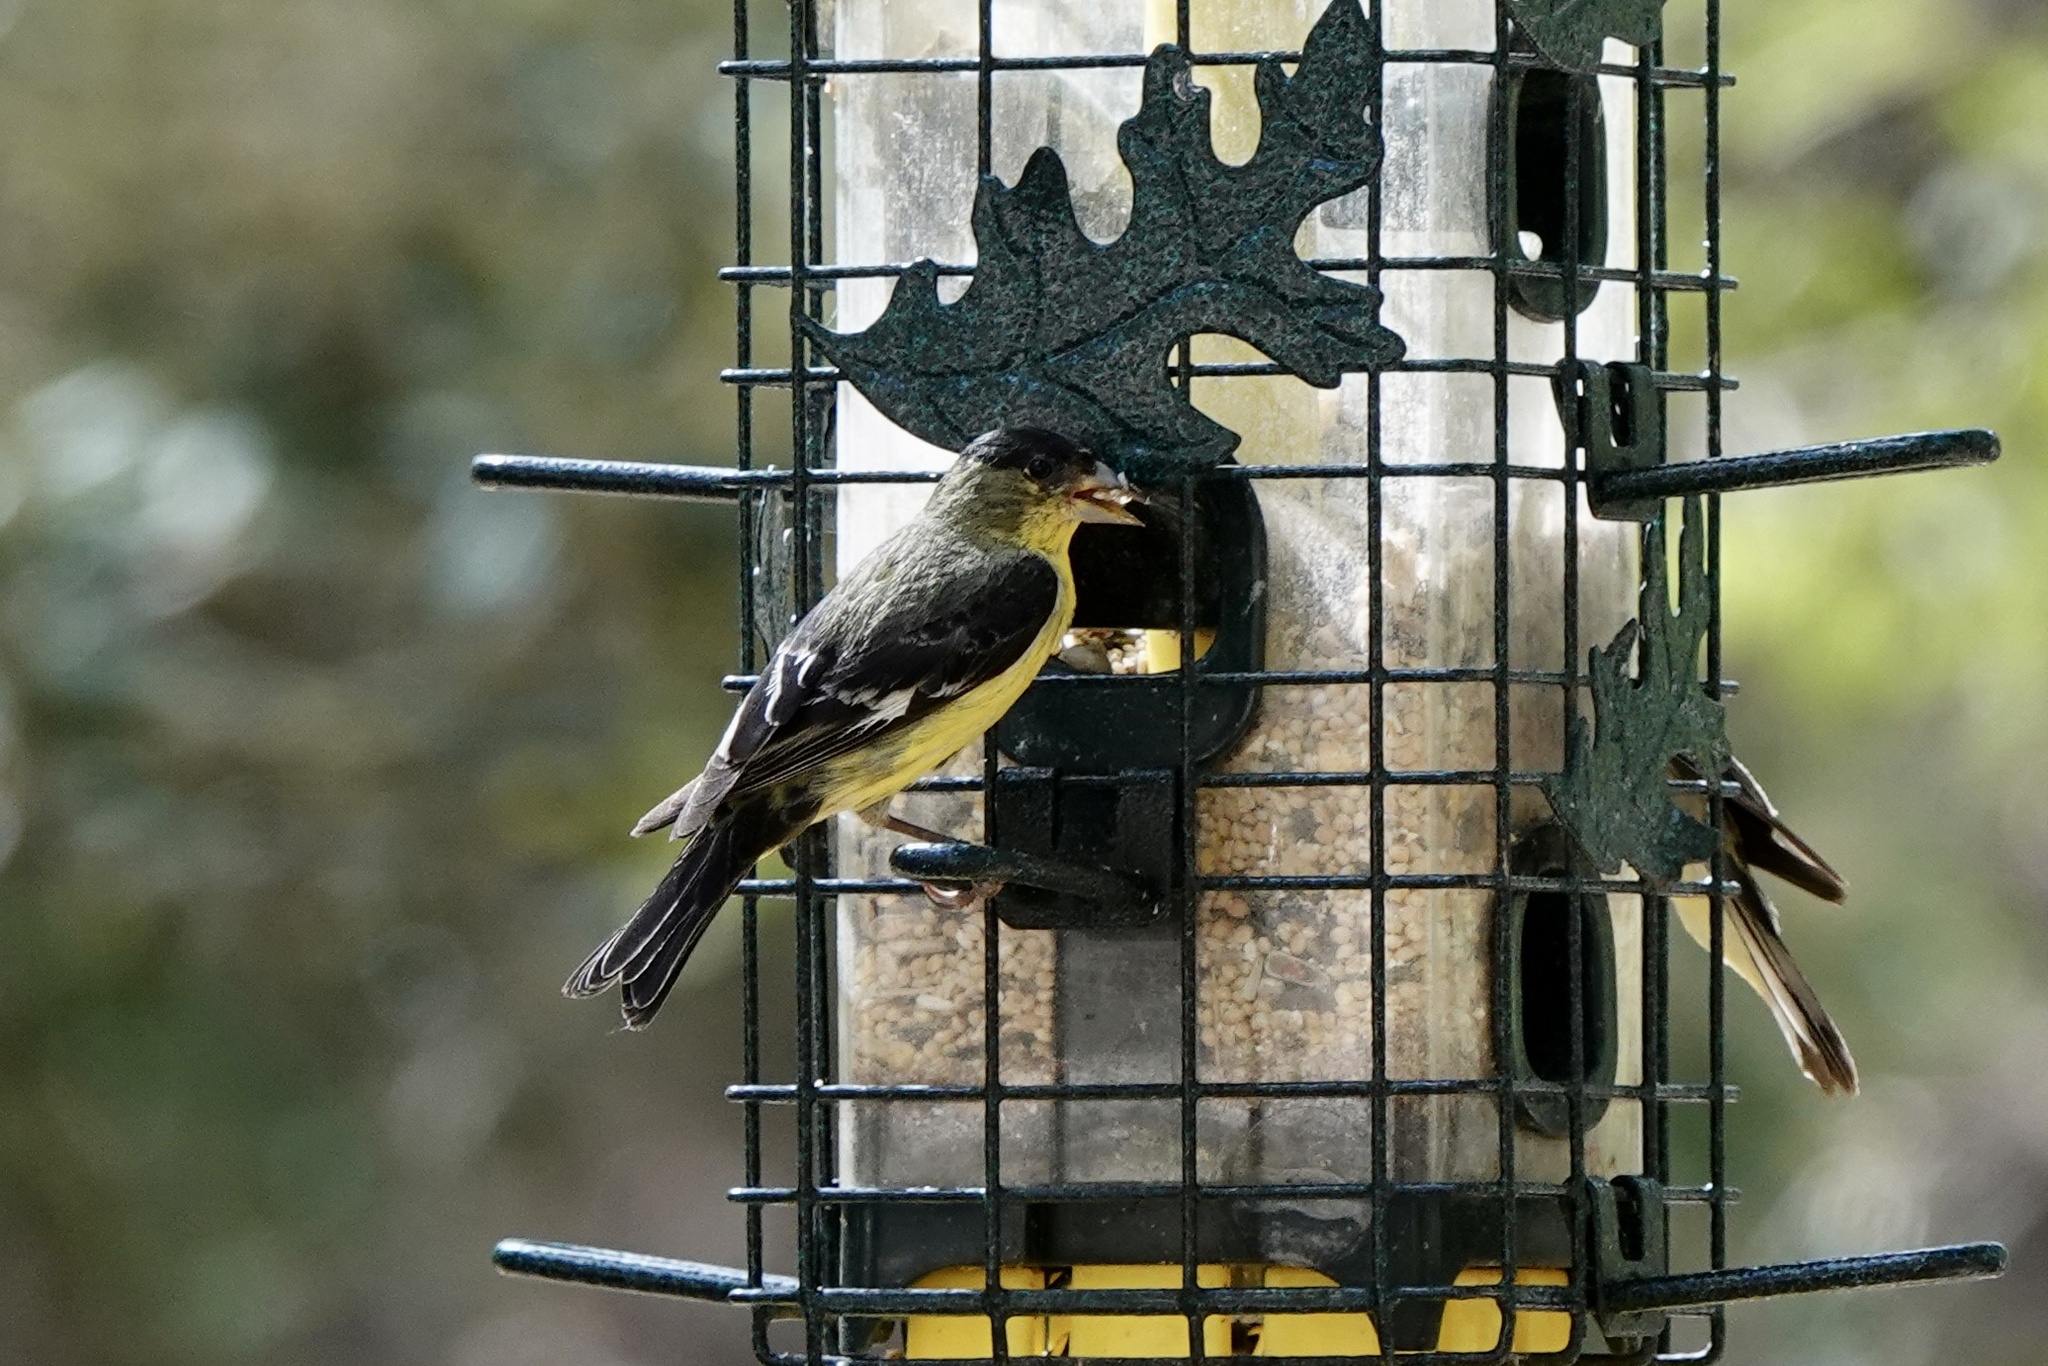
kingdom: Animalia
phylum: Chordata
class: Aves
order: Passeriformes
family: Fringillidae
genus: Spinus
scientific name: Spinus psaltria
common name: Lesser goldfinch
